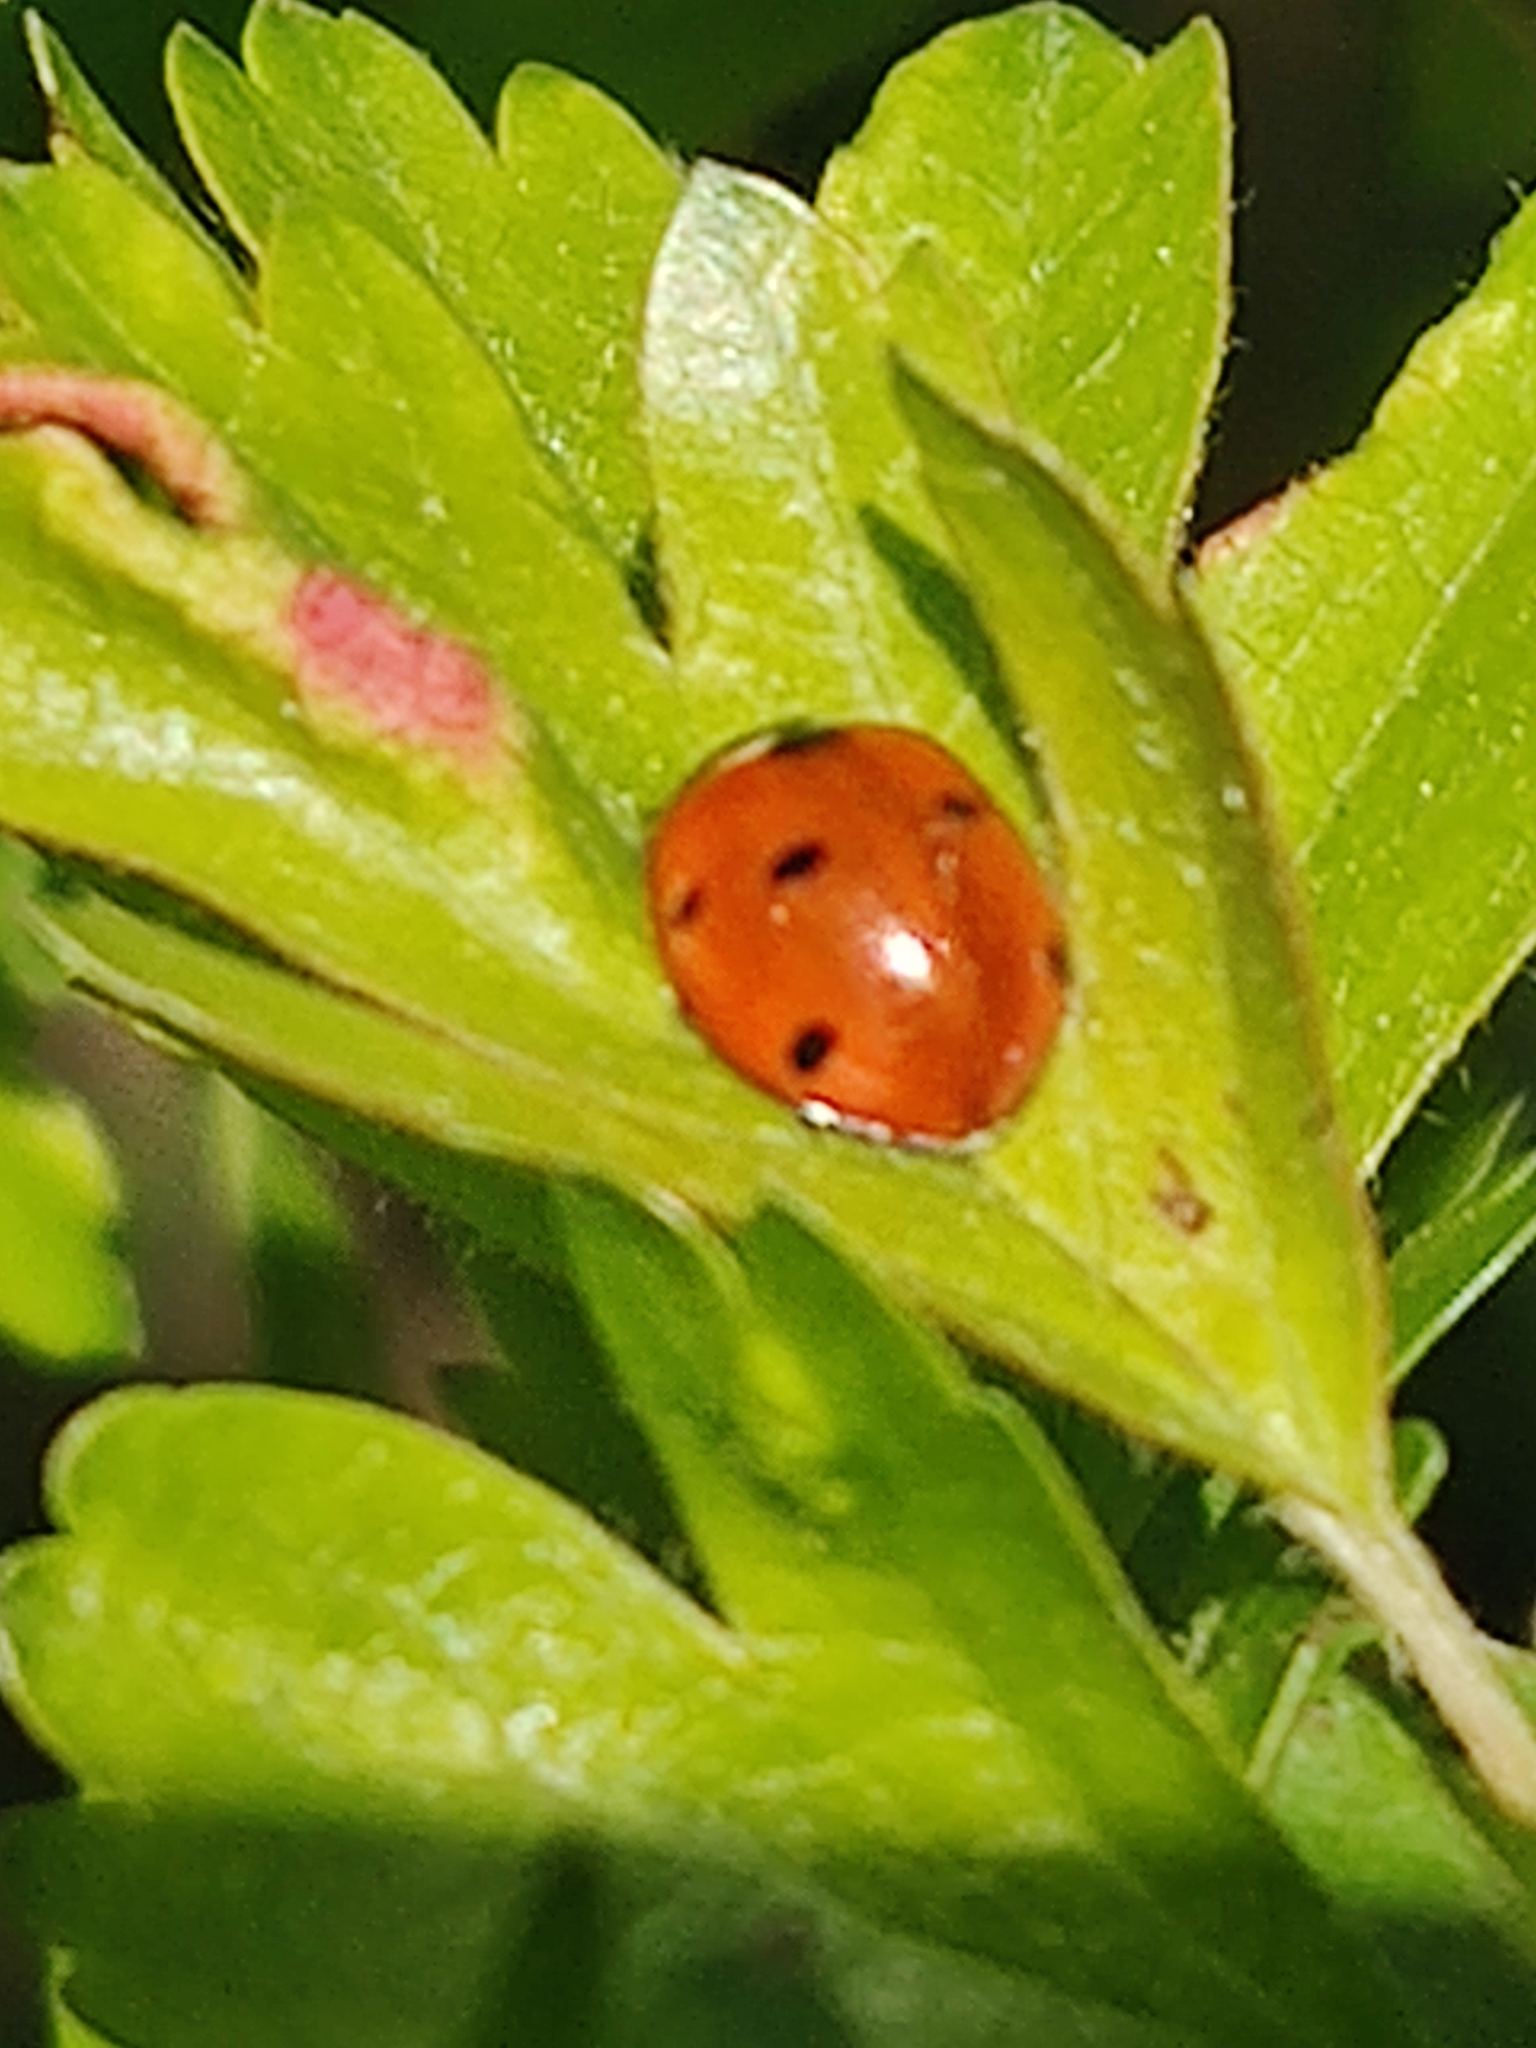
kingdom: Animalia
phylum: Arthropoda
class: Insecta
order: Coleoptera
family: Coccinellidae
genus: Coccinella
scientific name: Coccinella septempunctata
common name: Sevenspotted lady beetle
